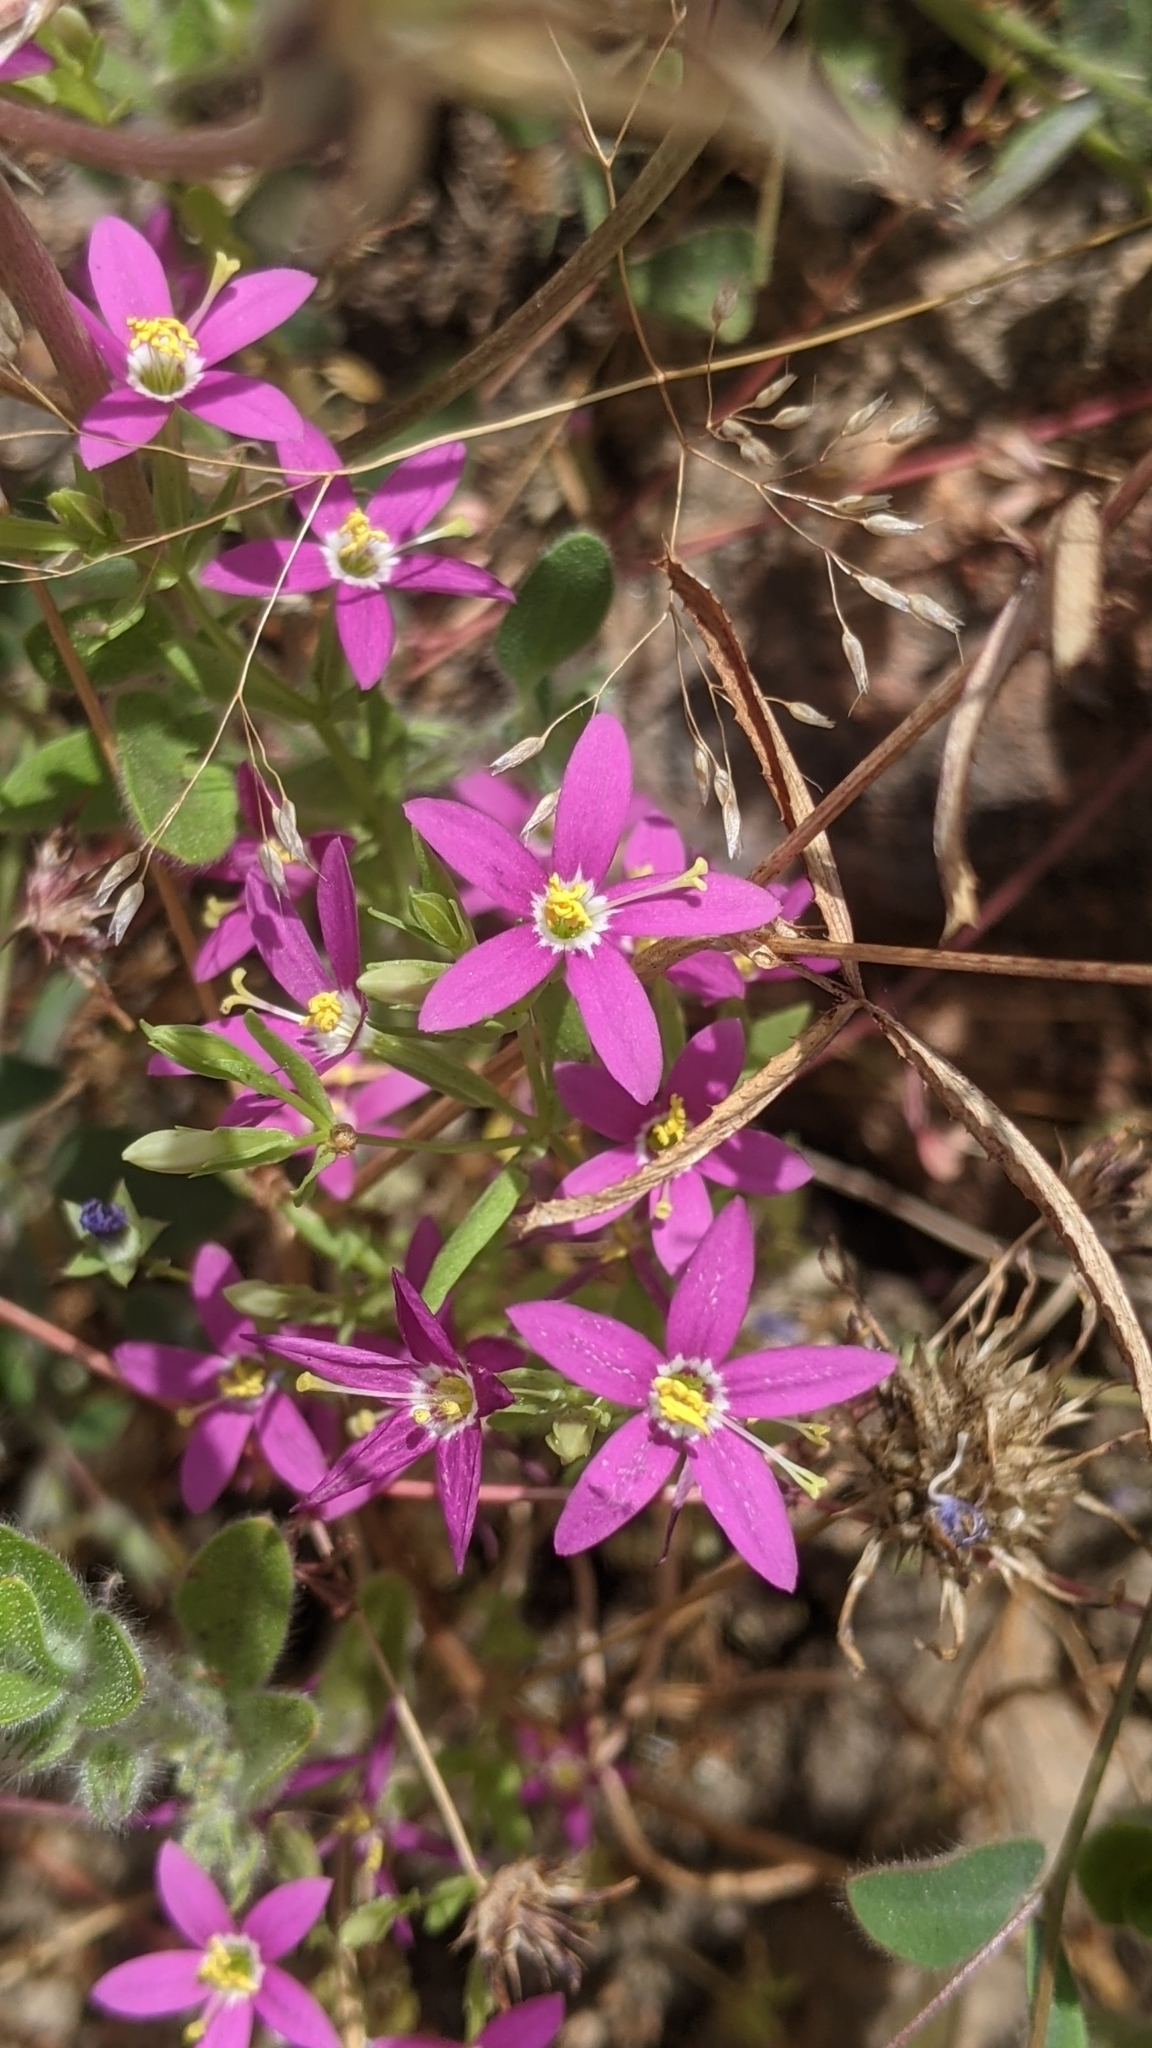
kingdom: Plantae
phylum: Tracheophyta
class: Magnoliopsida
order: Gentianales
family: Gentianaceae
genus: Zeltnera
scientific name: Zeltnera venusta
